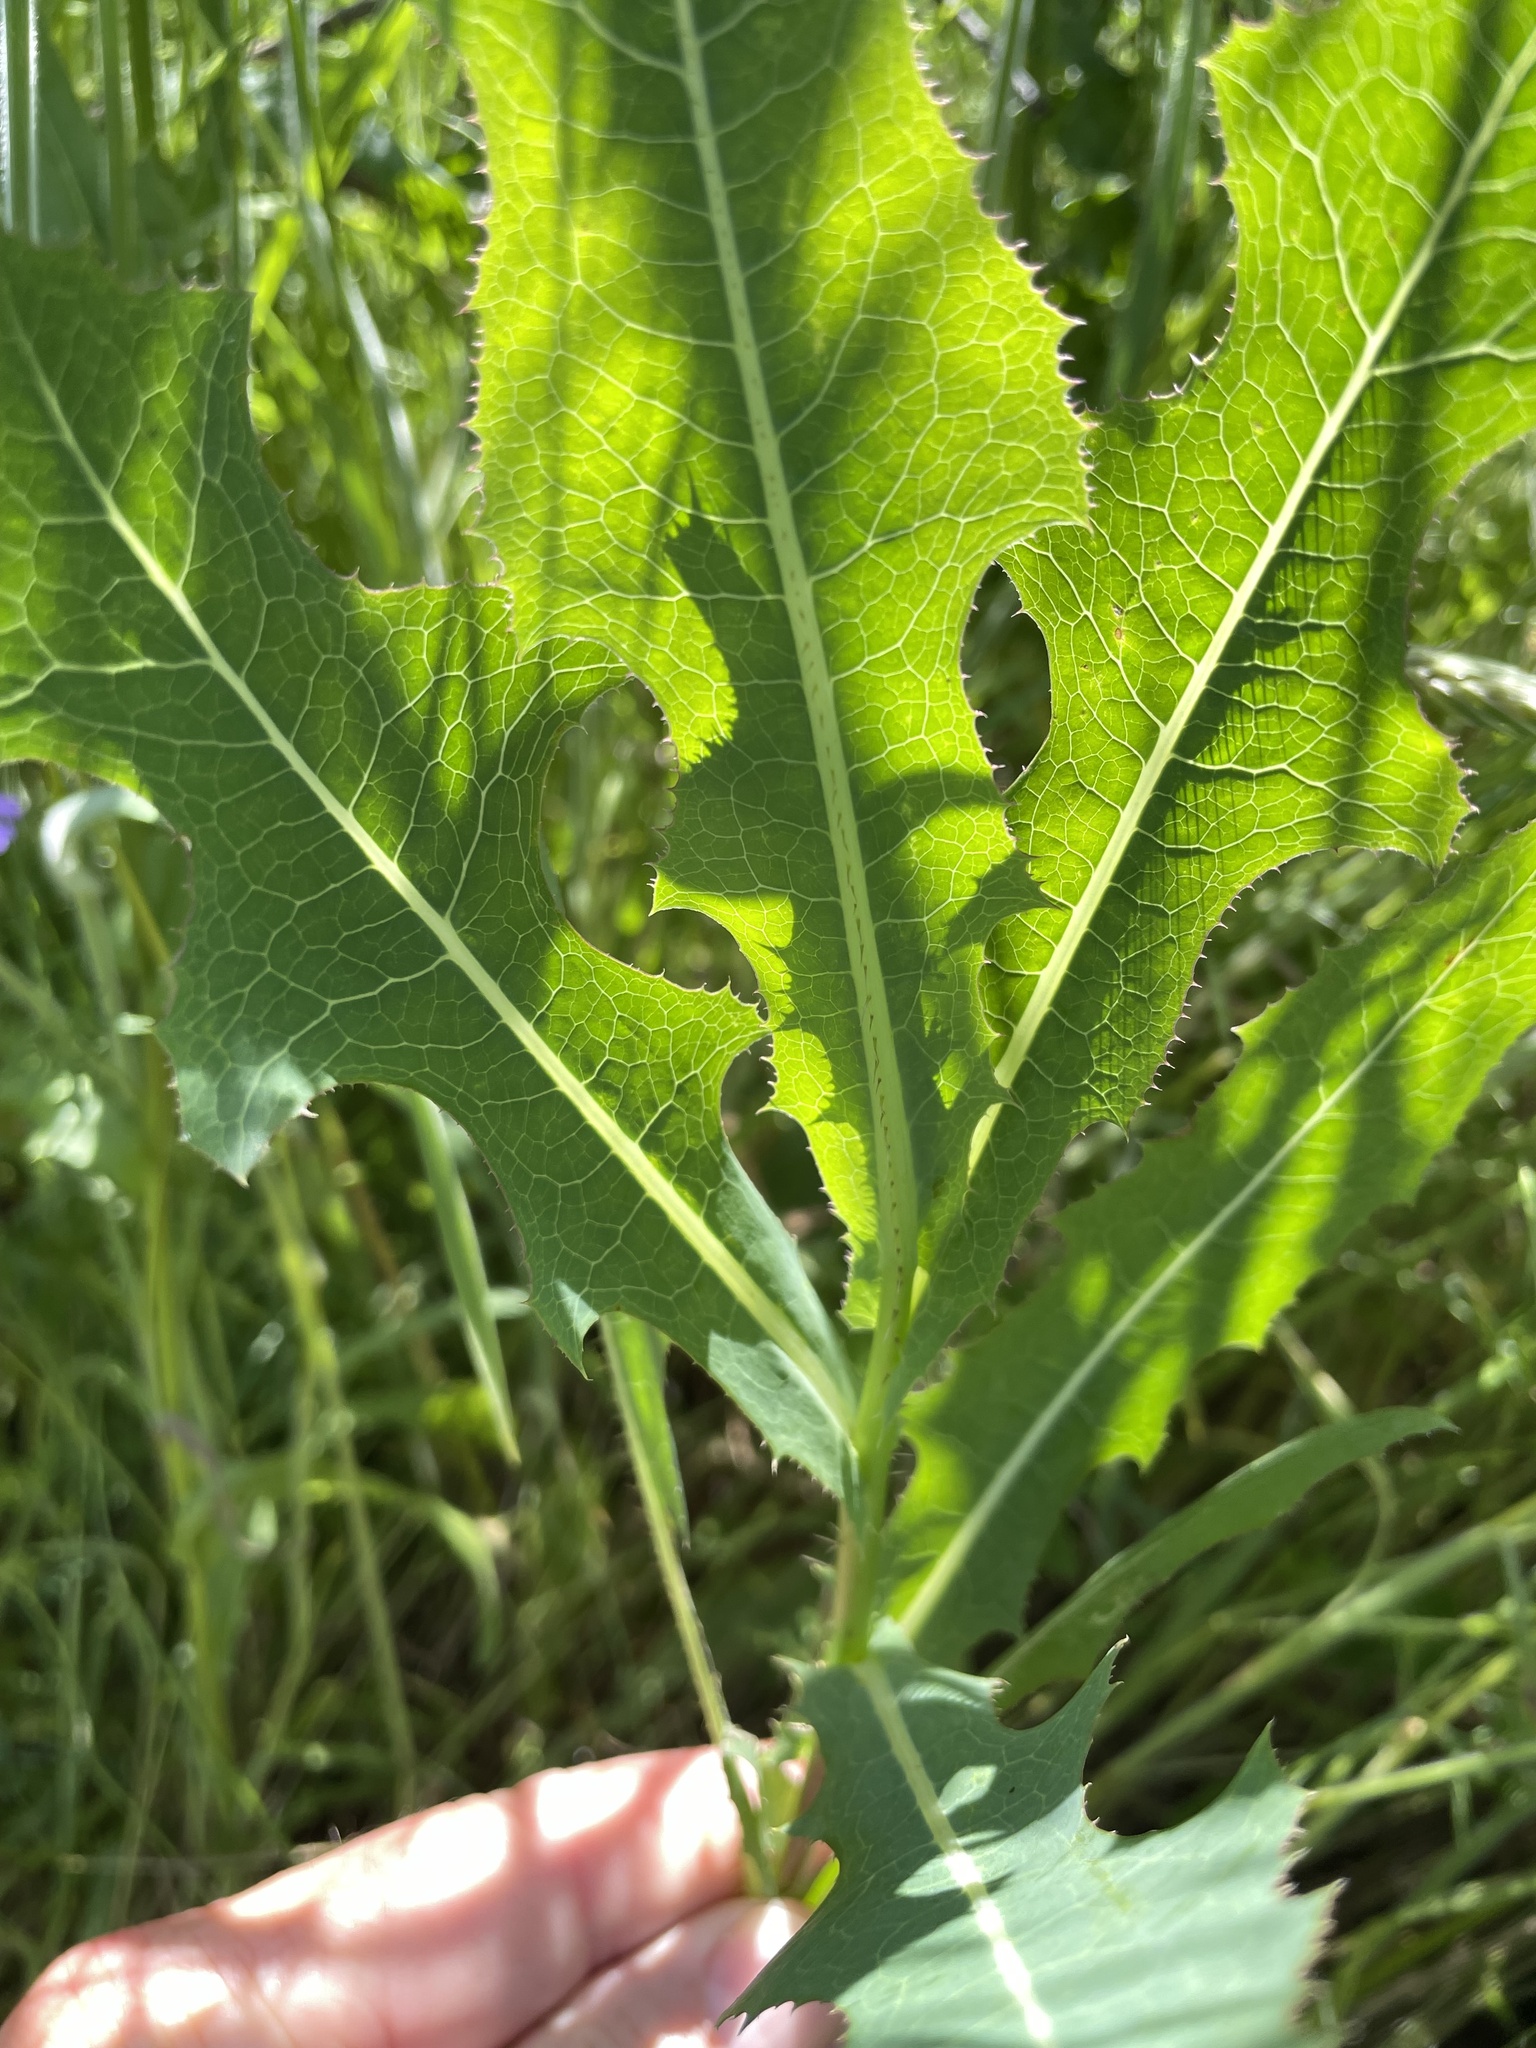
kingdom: Plantae
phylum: Tracheophyta
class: Magnoliopsida
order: Asterales
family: Asteraceae
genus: Lactuca
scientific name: Lactuca serriola
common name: Prickly lettuce
